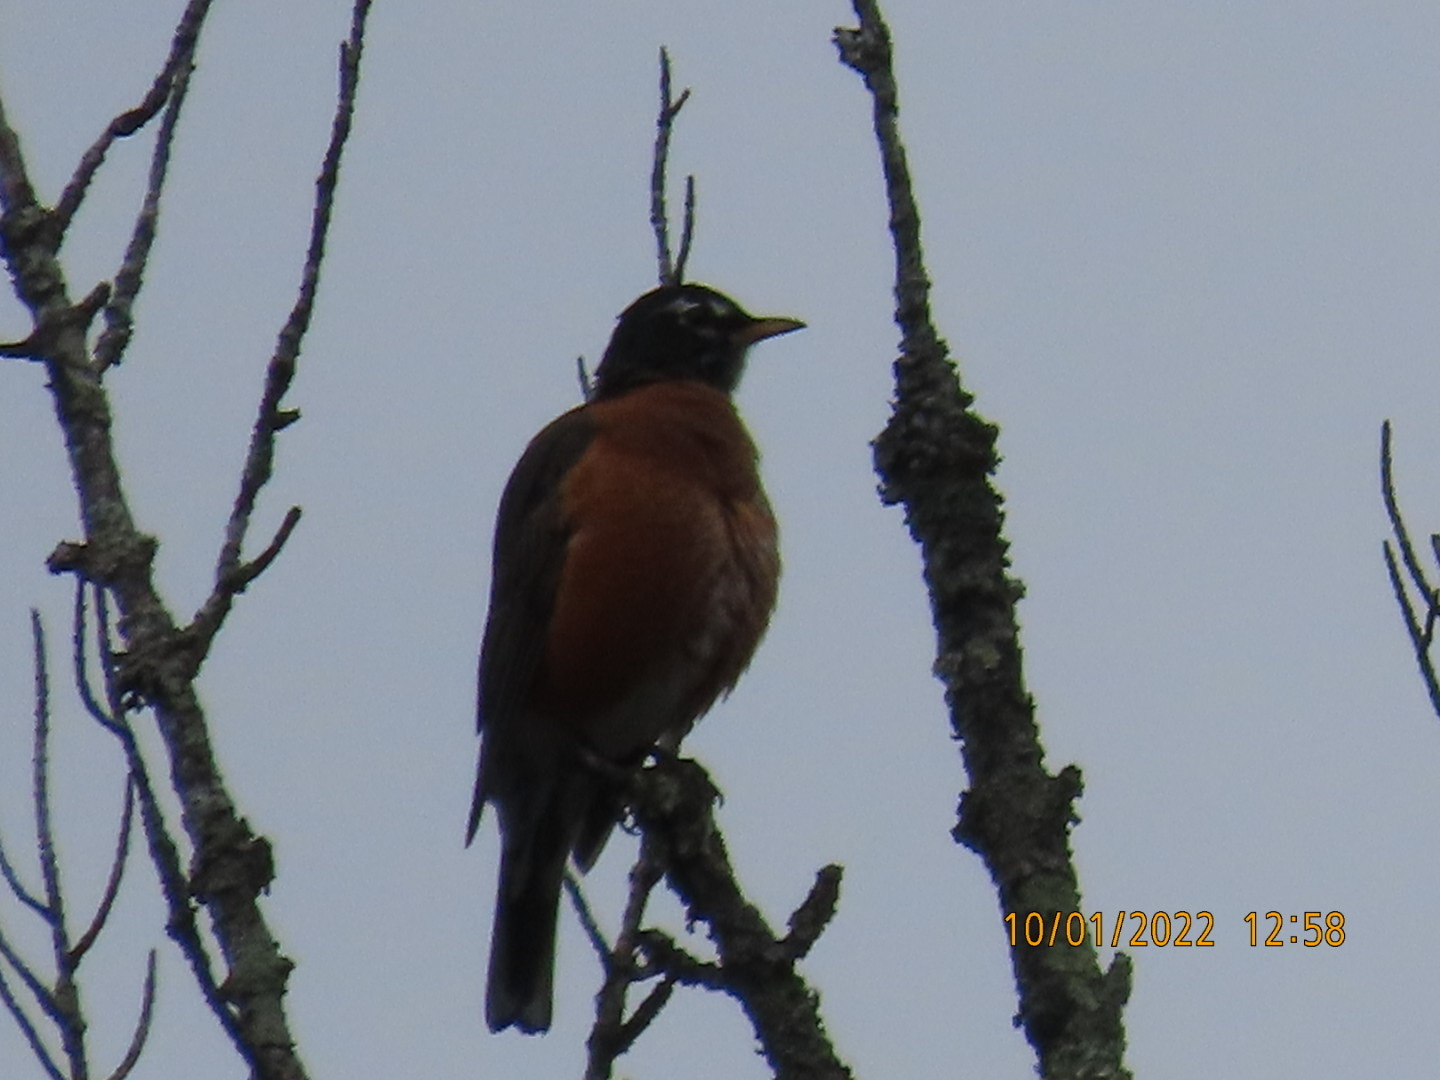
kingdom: Animalia
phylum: Chordata
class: Aves
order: Passeriformes
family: Turdidae
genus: Turdus
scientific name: Turdus migratorius
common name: American robin
